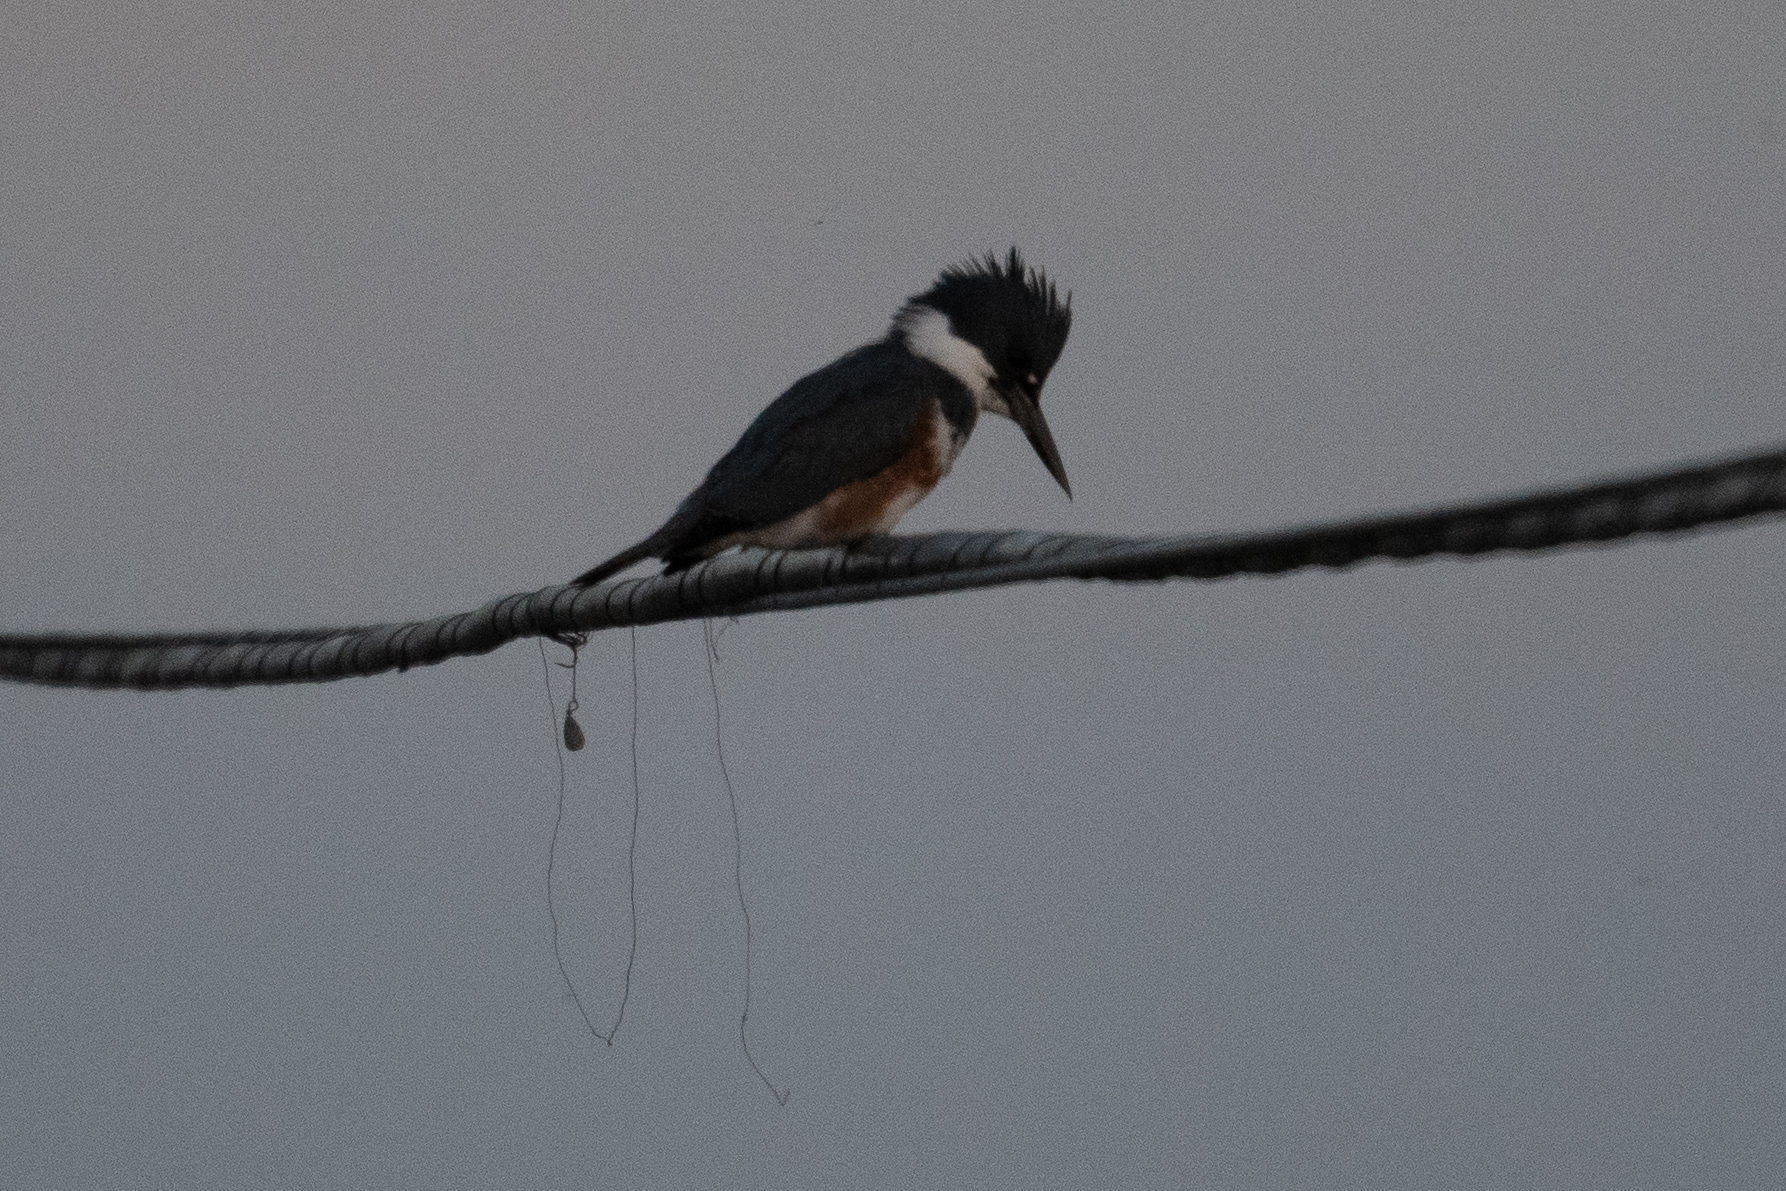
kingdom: Animalia
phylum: Chordata
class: Aves
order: Coraciiformes
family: Alcedinidae
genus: Megaceryle
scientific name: Megaceryle alcyon
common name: Belted kingfisher
